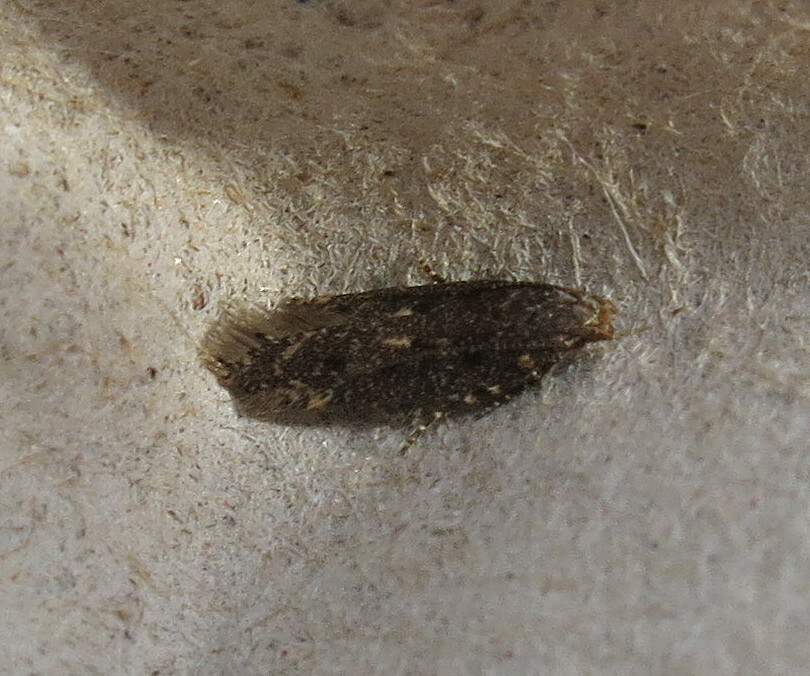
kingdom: Animalia
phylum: Arthropoda
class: Insecta
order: Lepidoptera
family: Gelechiidae
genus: Bryotropha
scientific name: Bryotropha affinis
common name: Dark groundling
